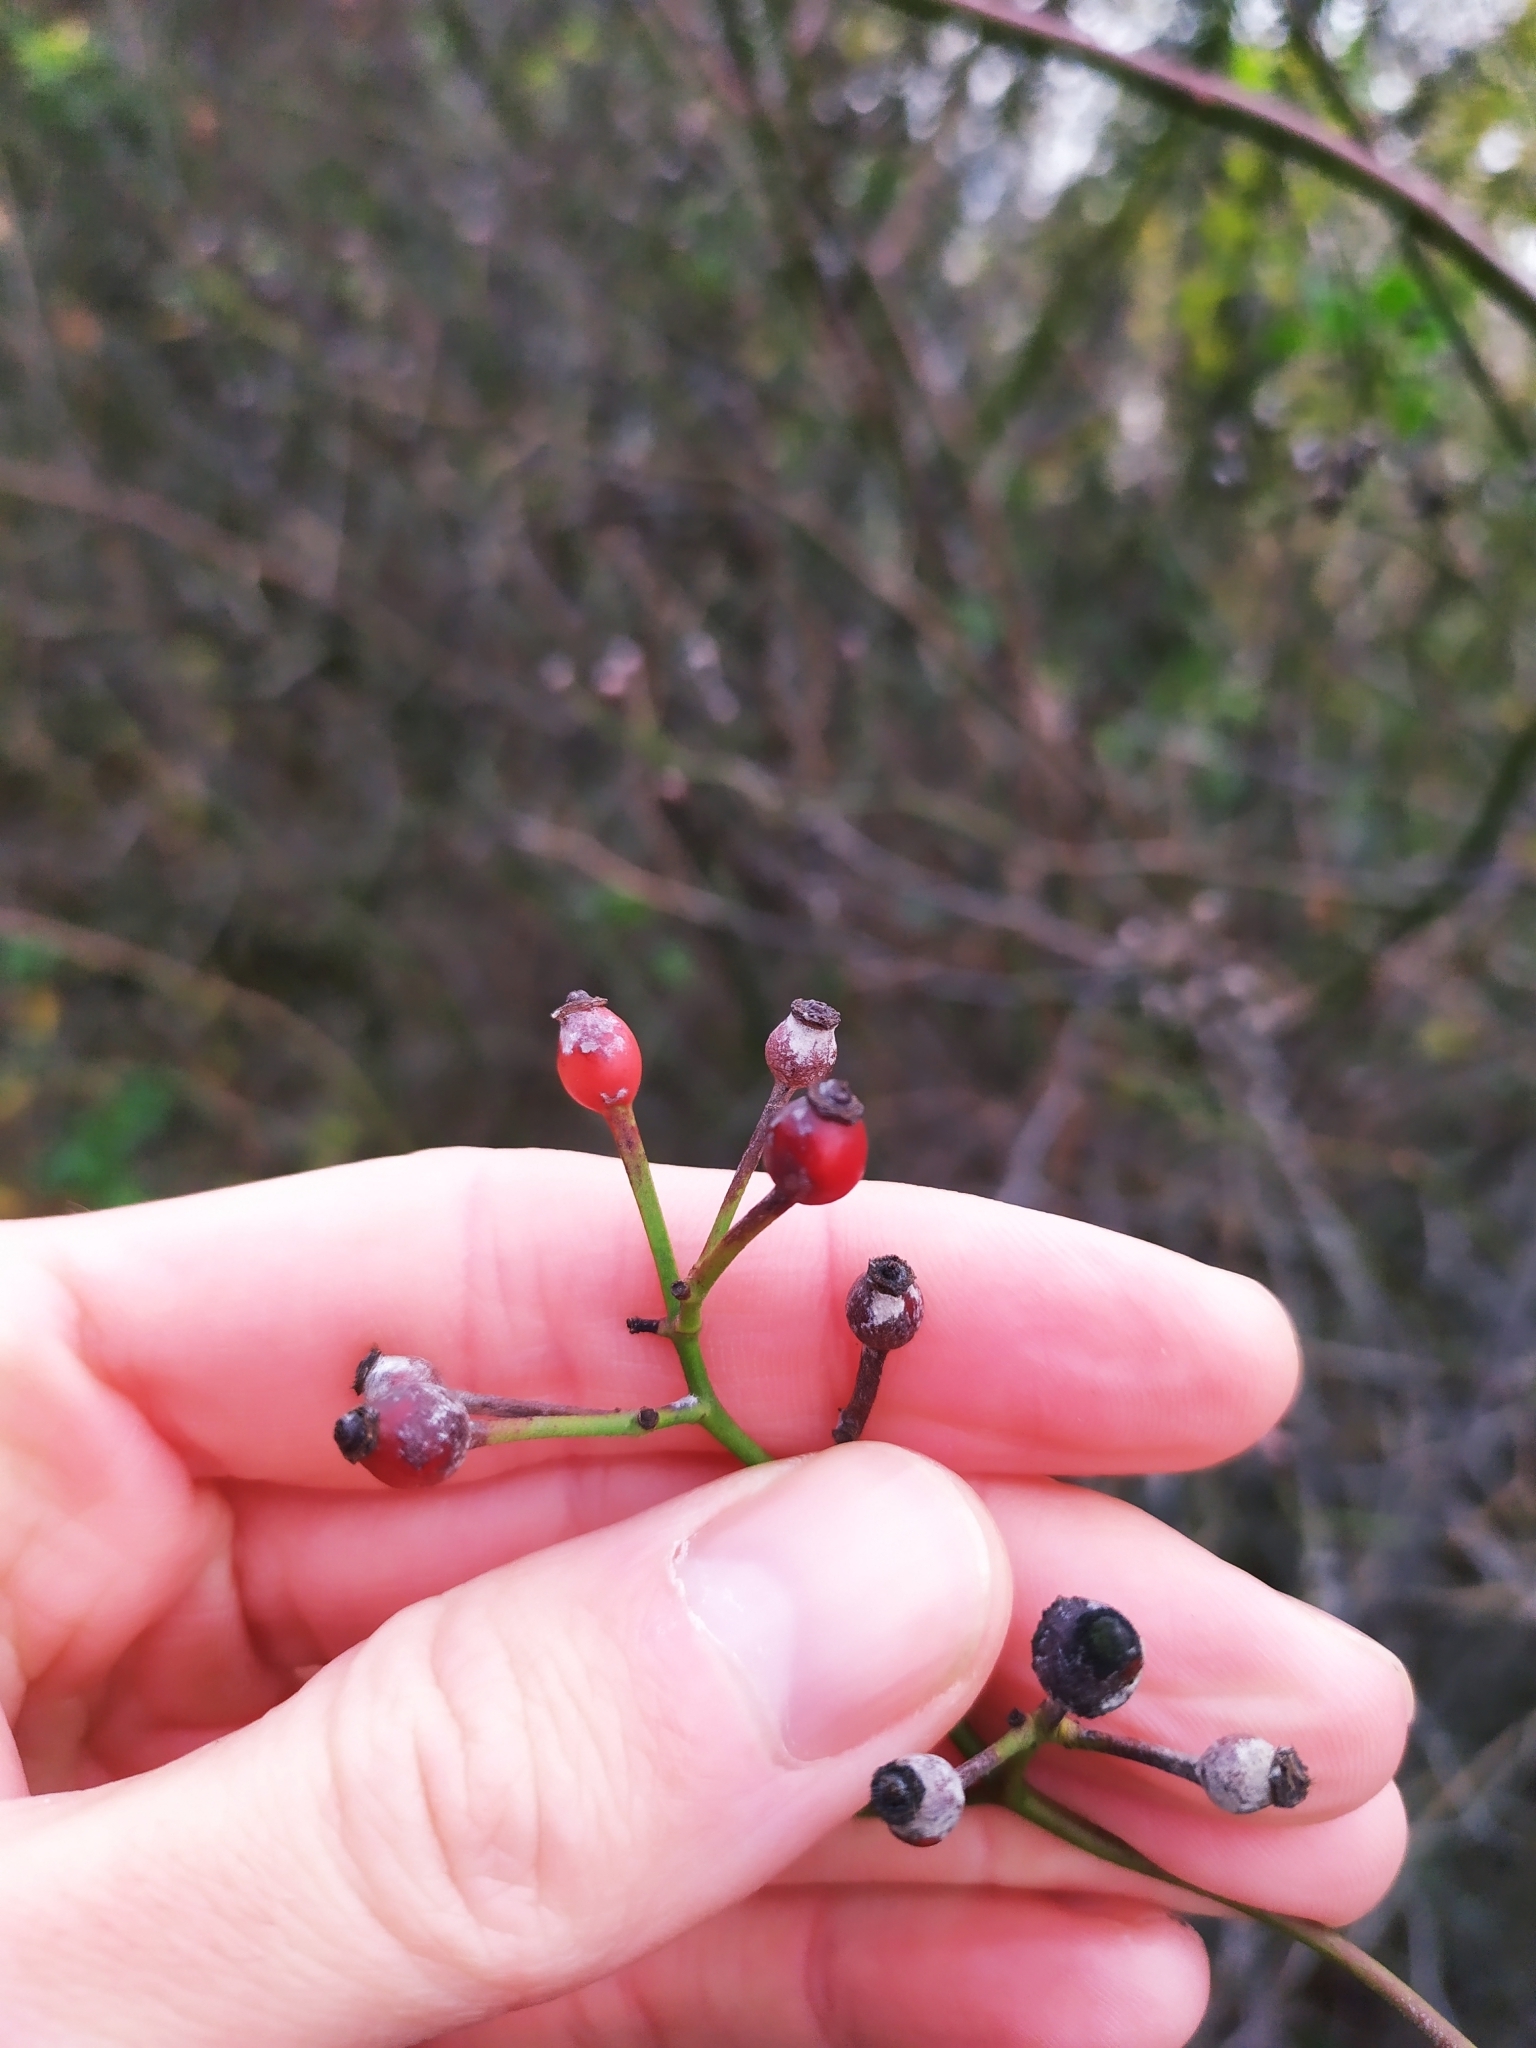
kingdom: Plantae
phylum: Tracheophyta
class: Magnoliopsida
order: Rosales
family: Rosaceae
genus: Rosa
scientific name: Rosa multiflora
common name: Multiflora rose
